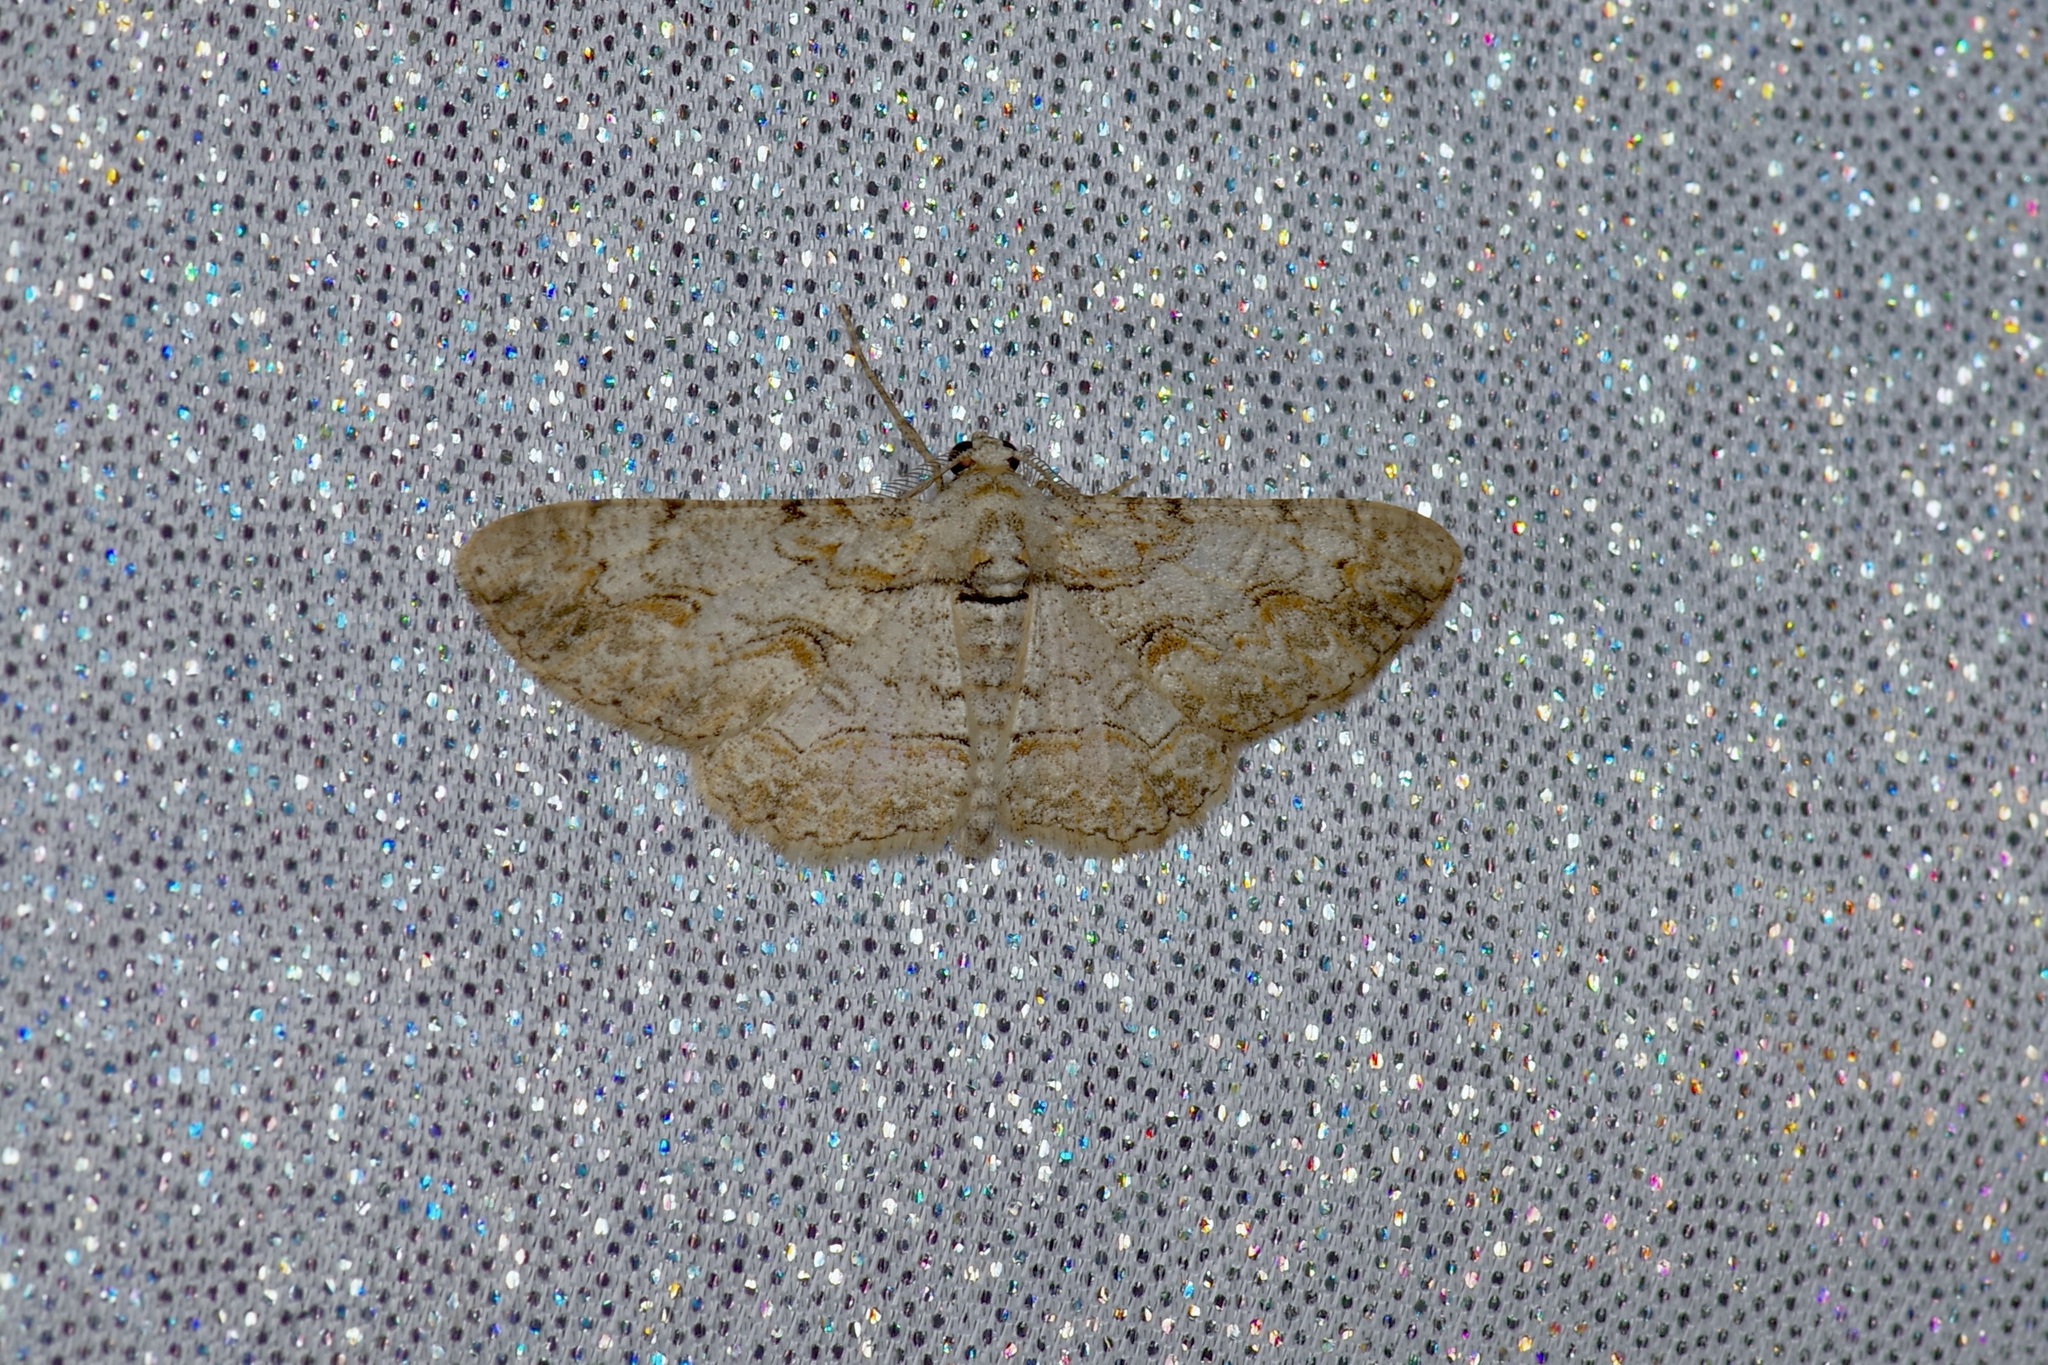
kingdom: Animalia
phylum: Arthropoda
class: Insecta
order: Lepidoptera
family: Geometridae
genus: Iridopsis
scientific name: Iridopsis defectaria
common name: Brown-shaded gray
